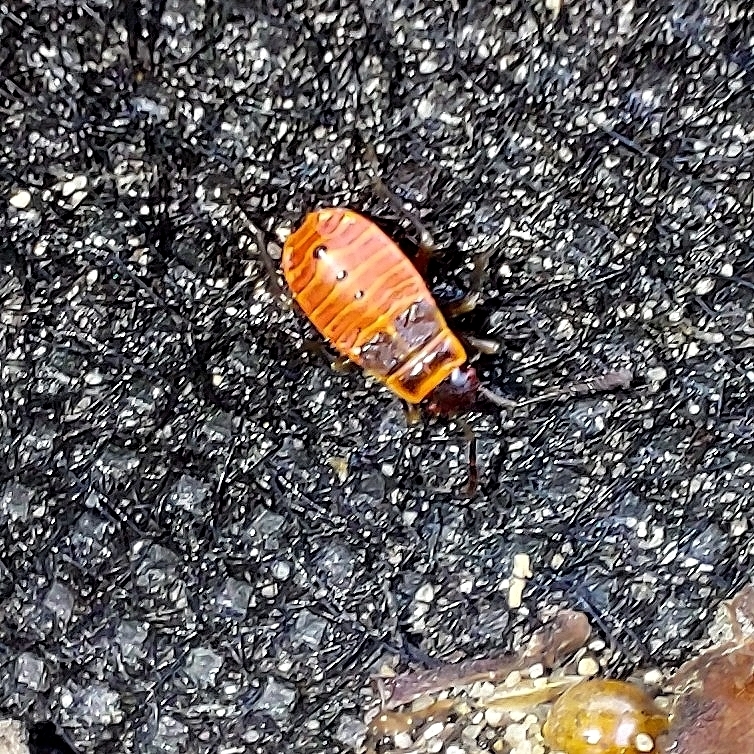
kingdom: Animalia
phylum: Arthropoda
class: Insecta
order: Hemiptera
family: Pyrrhocoridae
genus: Pyrrhocoris
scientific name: Pyrrhocoris apterus
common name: Firebug
